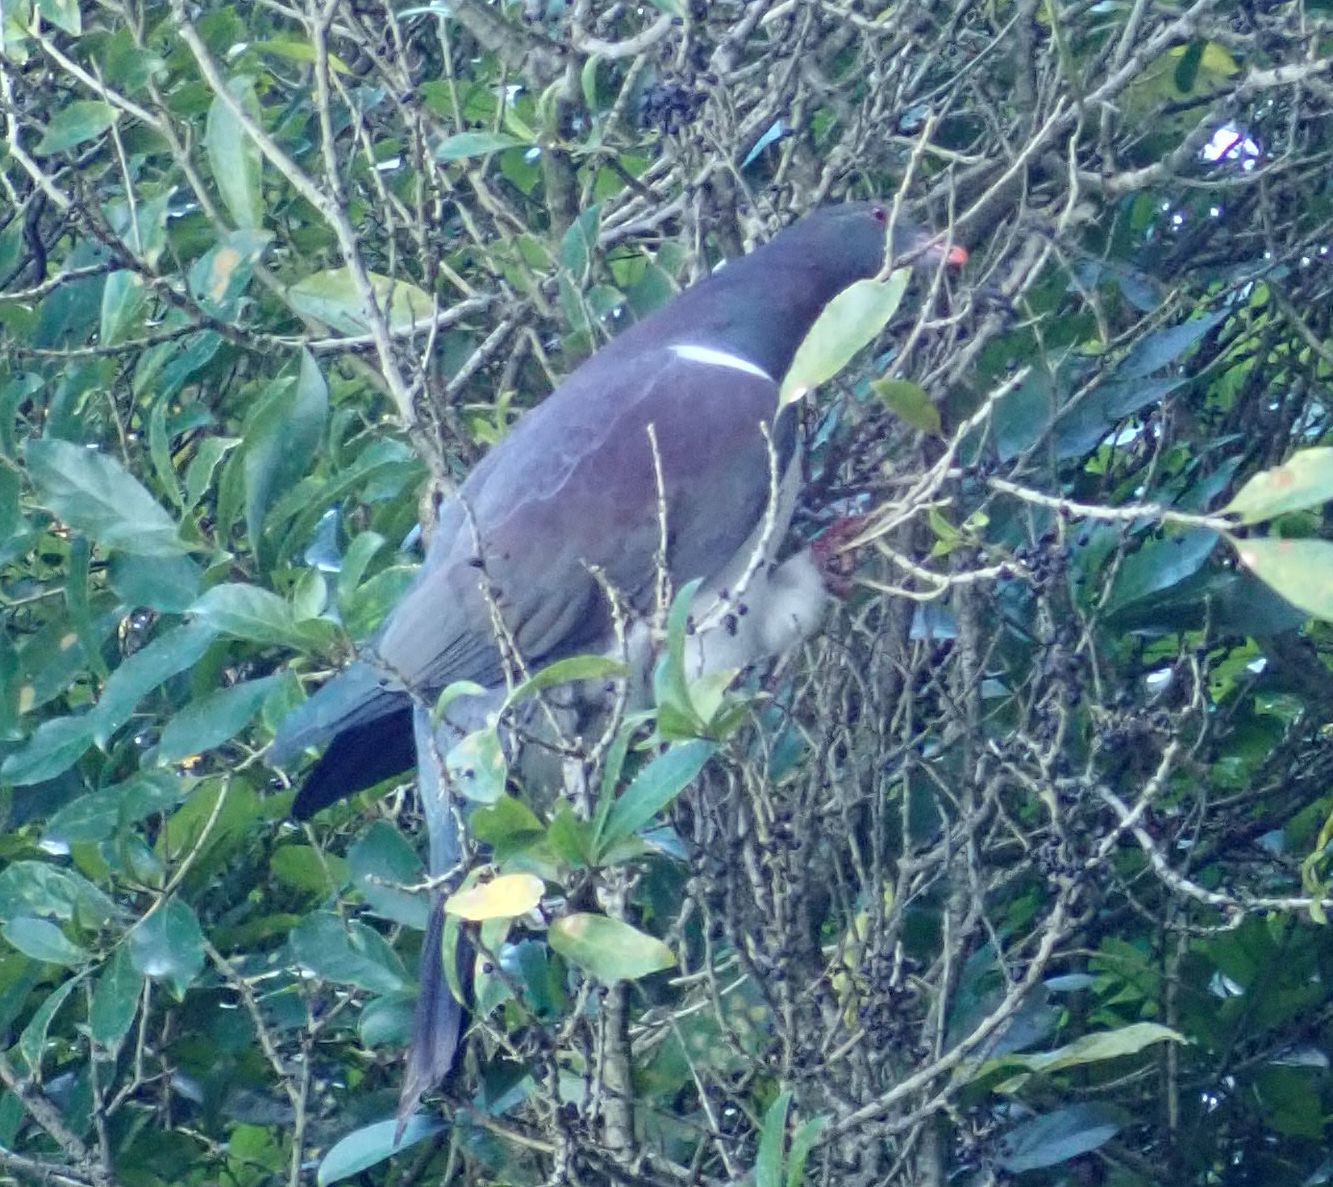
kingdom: Animalia
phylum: Chordata
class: Aves
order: Columbiformes
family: Columbidae
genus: Hemiphaga
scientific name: Hemiphaga novaeseelandiae
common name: New zealand pigeon
